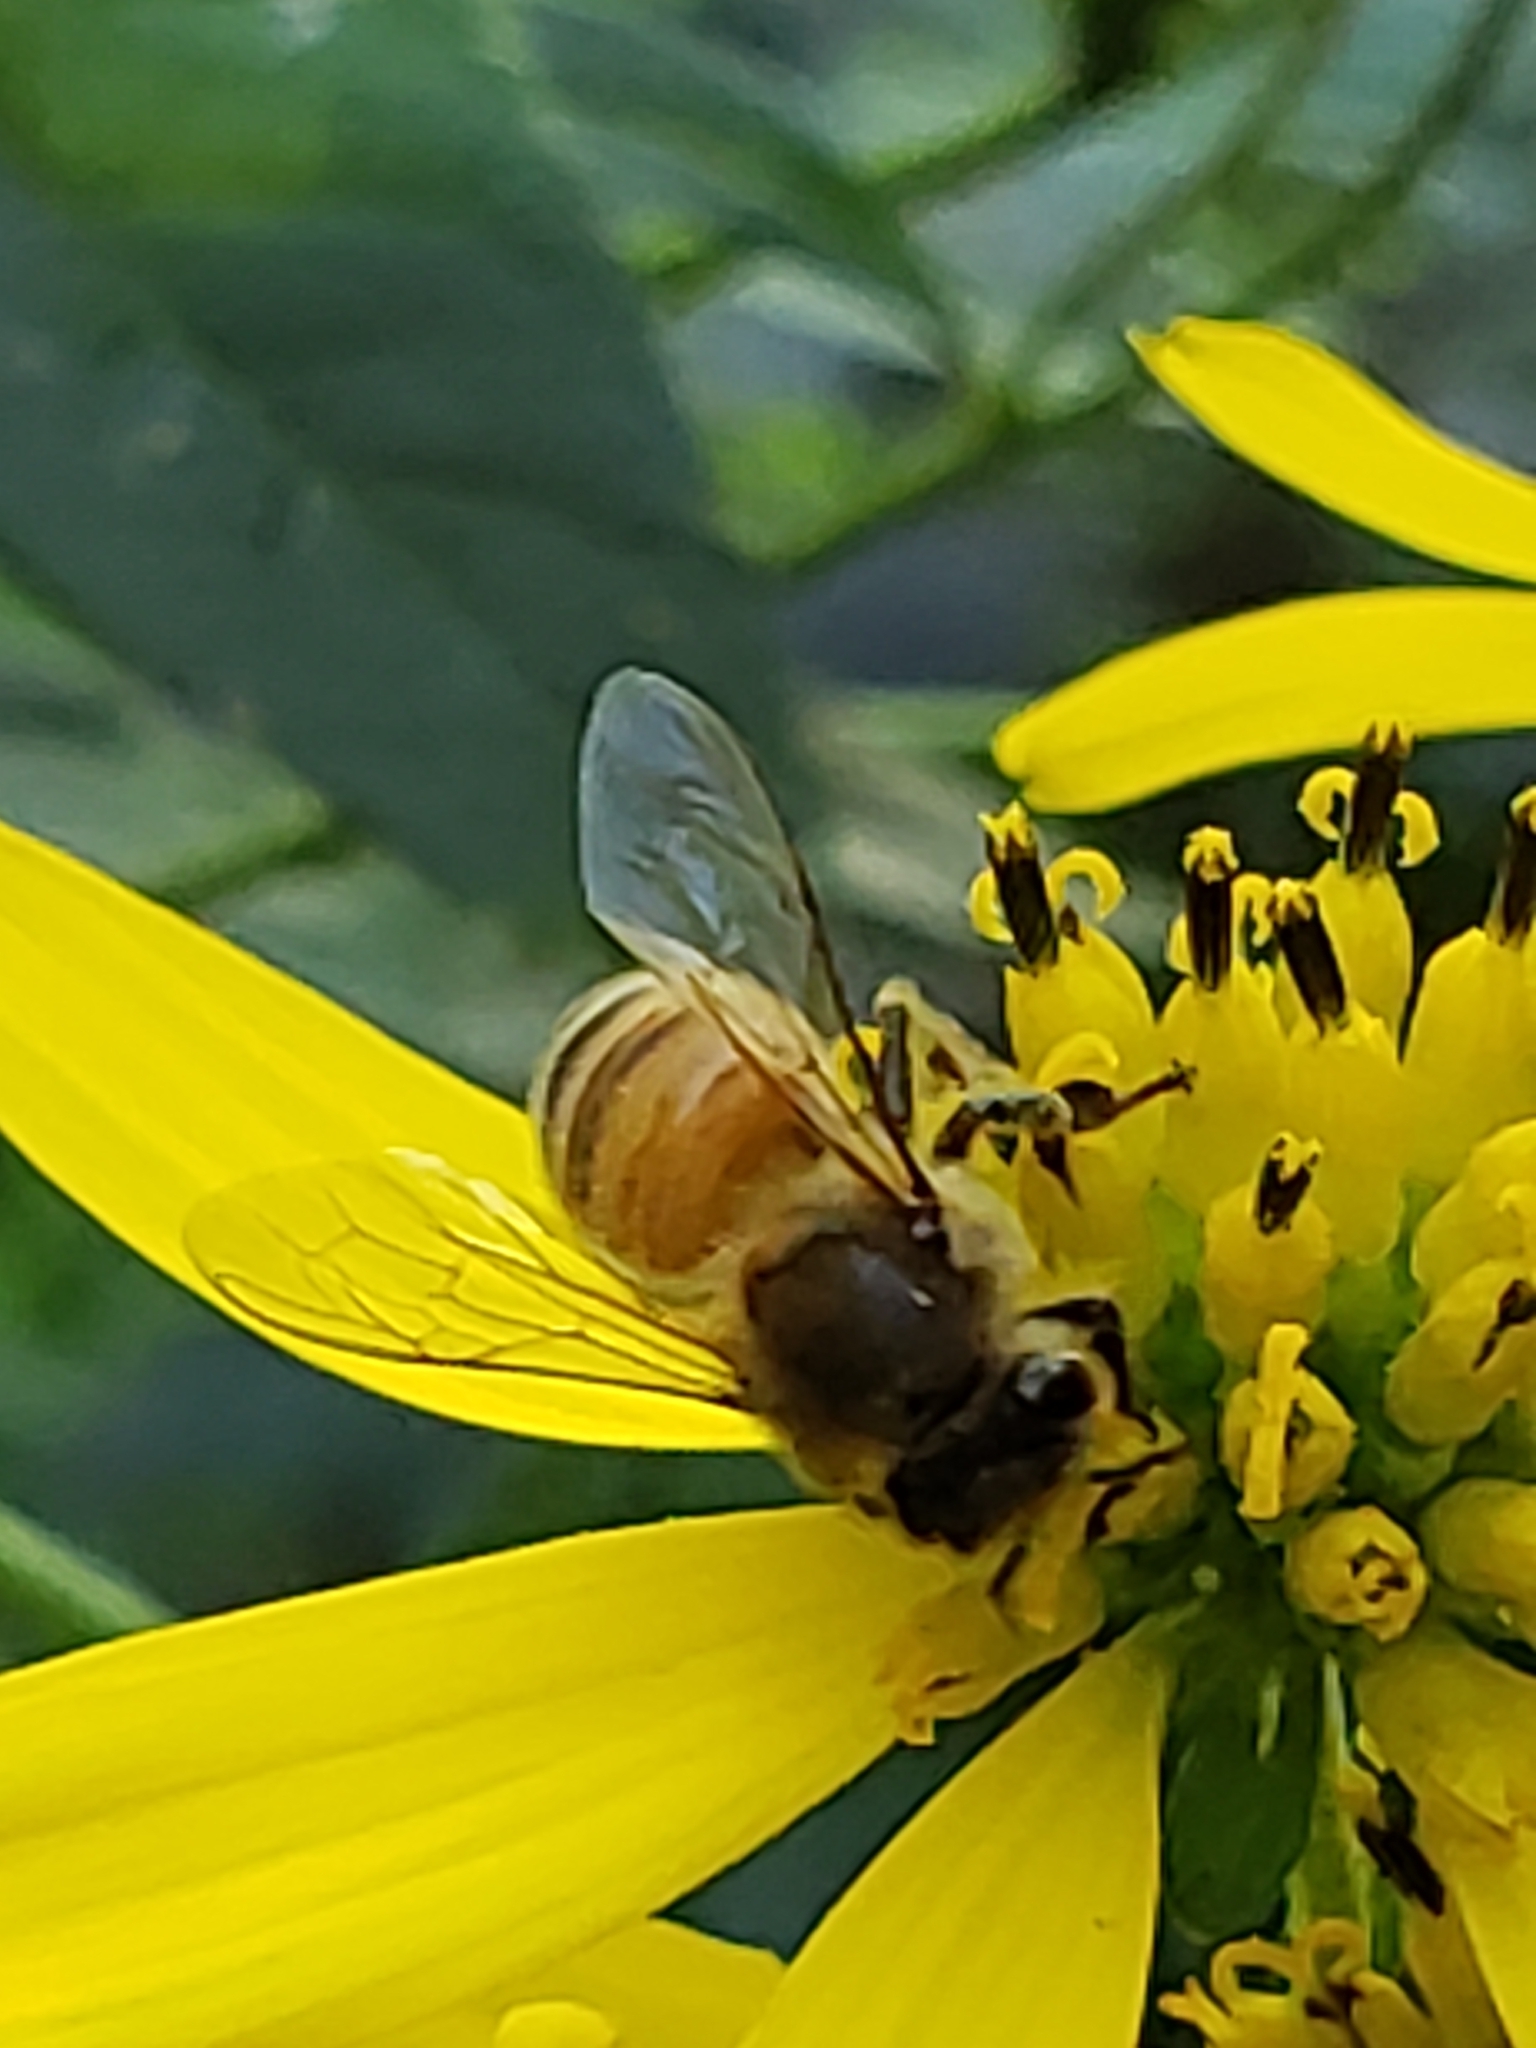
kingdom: Animalia
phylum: Arthropoda
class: Insecta
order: Hymenoptera
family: Apidae
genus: Apis
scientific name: Apis mellifera
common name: Honey bee
